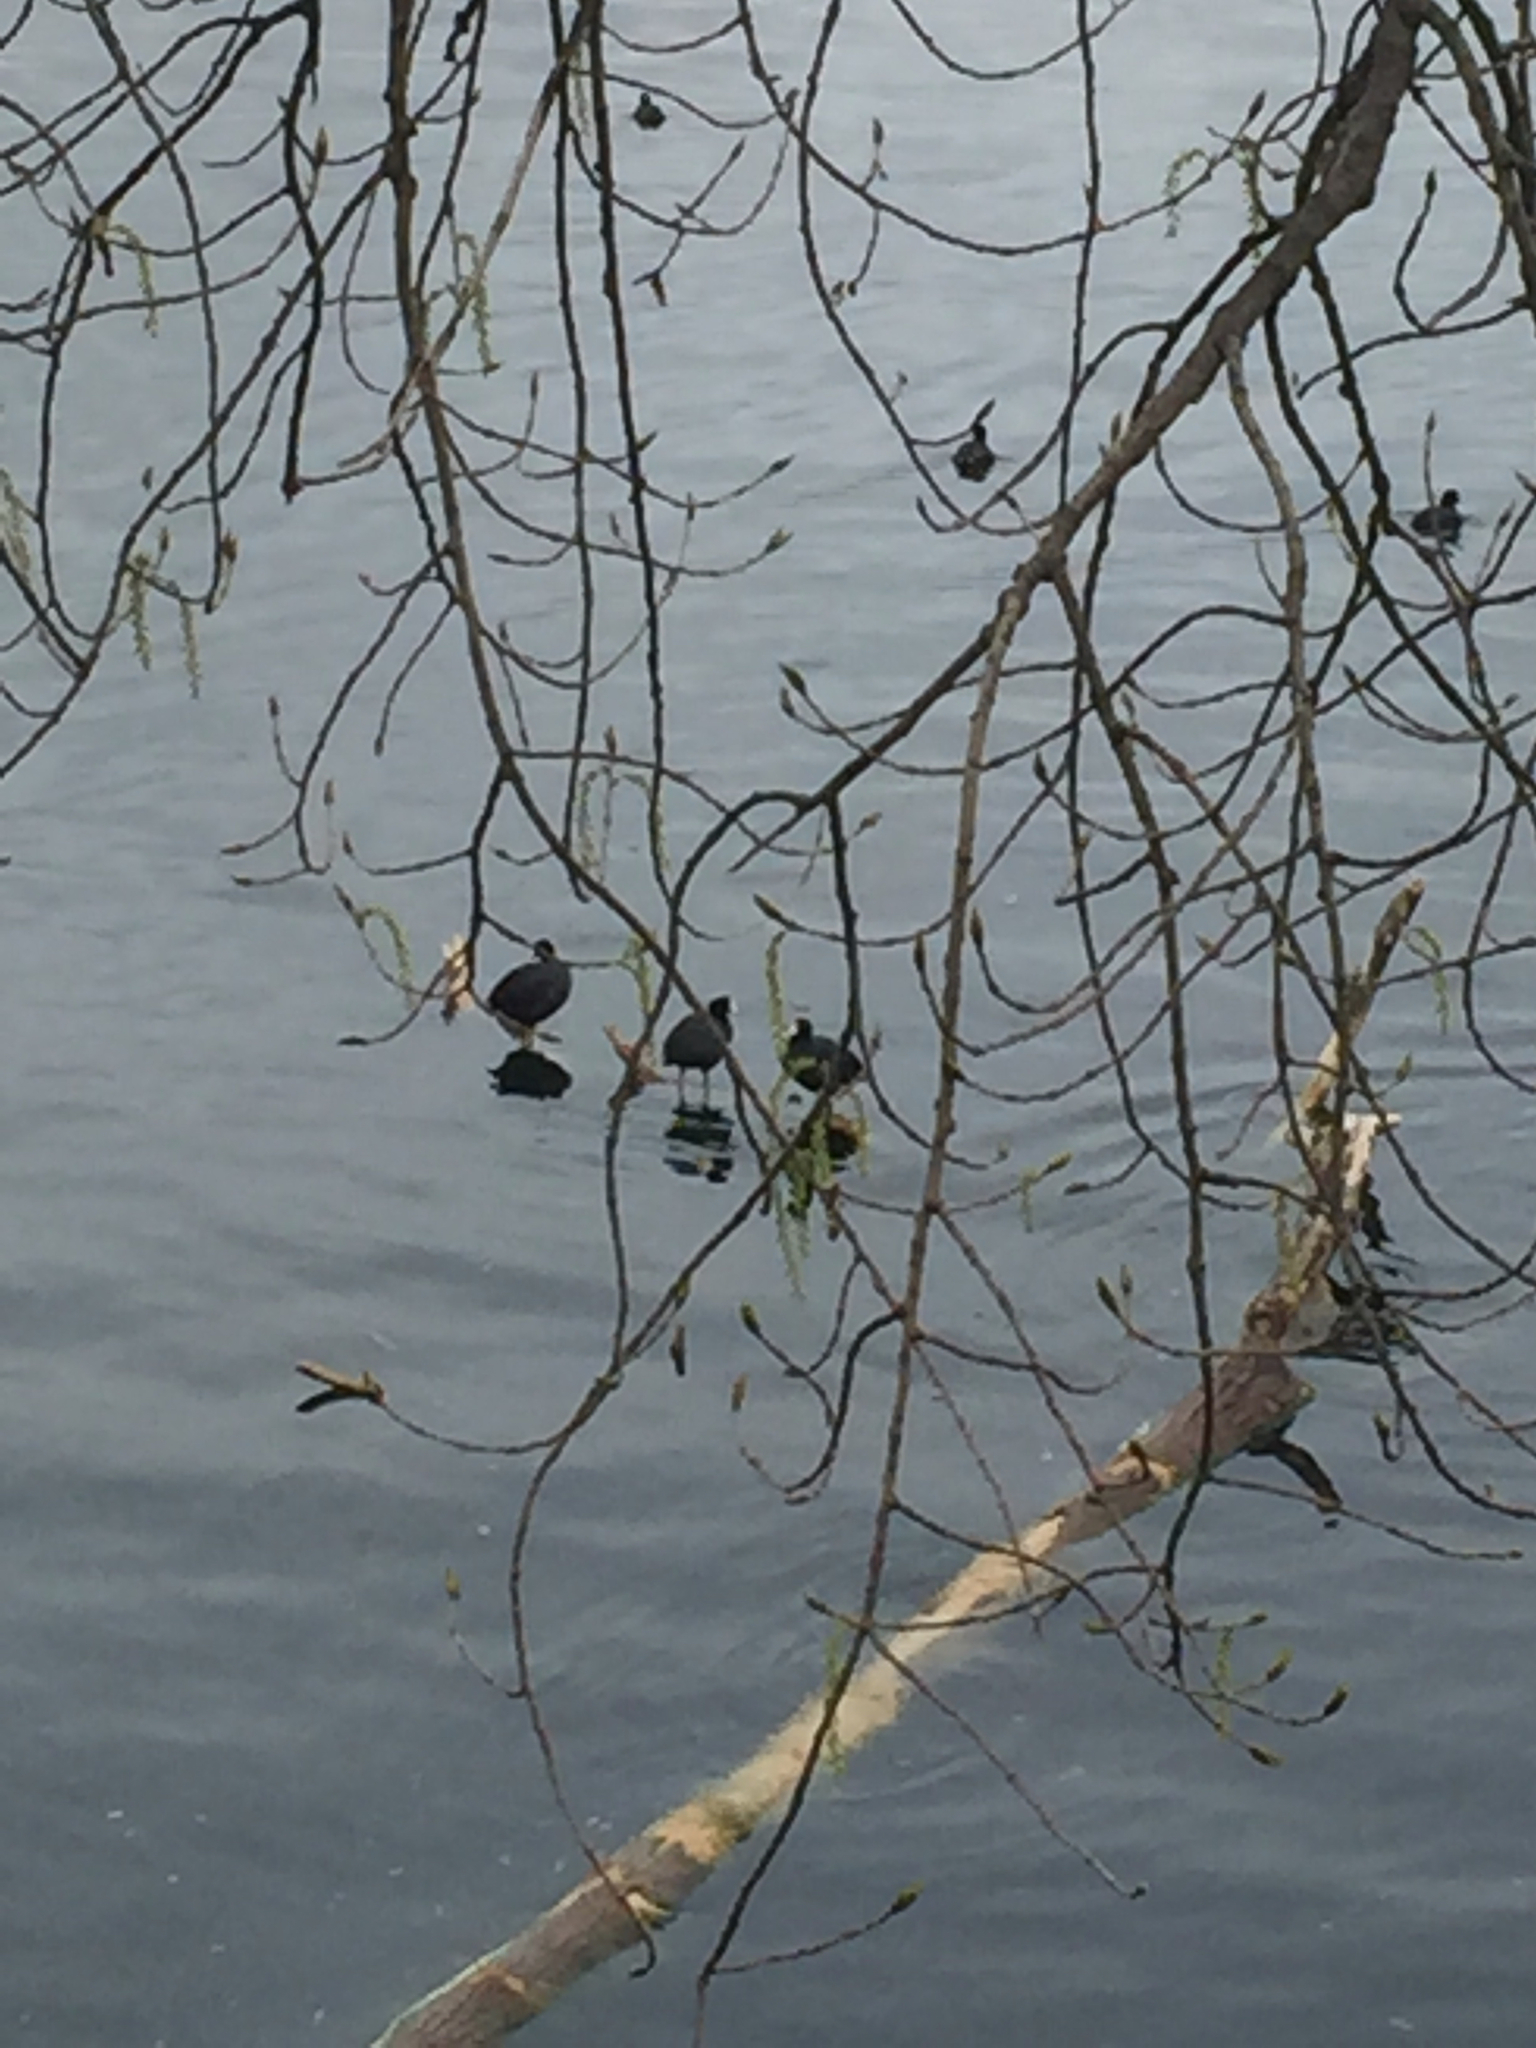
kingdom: Animalia
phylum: Chordata
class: Aves
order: Gruiformes
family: Rallidae
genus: Fulica
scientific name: Fulica americana
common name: American coot
